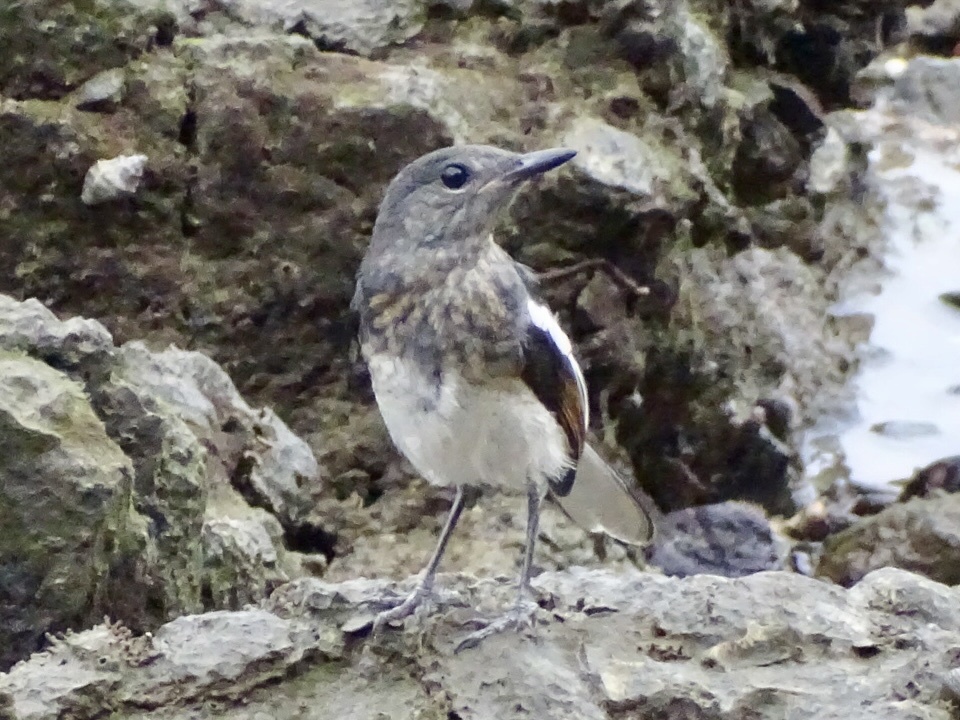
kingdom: Animalia
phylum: Chordata
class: Aves
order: Passeriformes
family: Muscicapidae
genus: Copsychus
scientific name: Copsychus saularis
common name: Oriental magpie-robin
